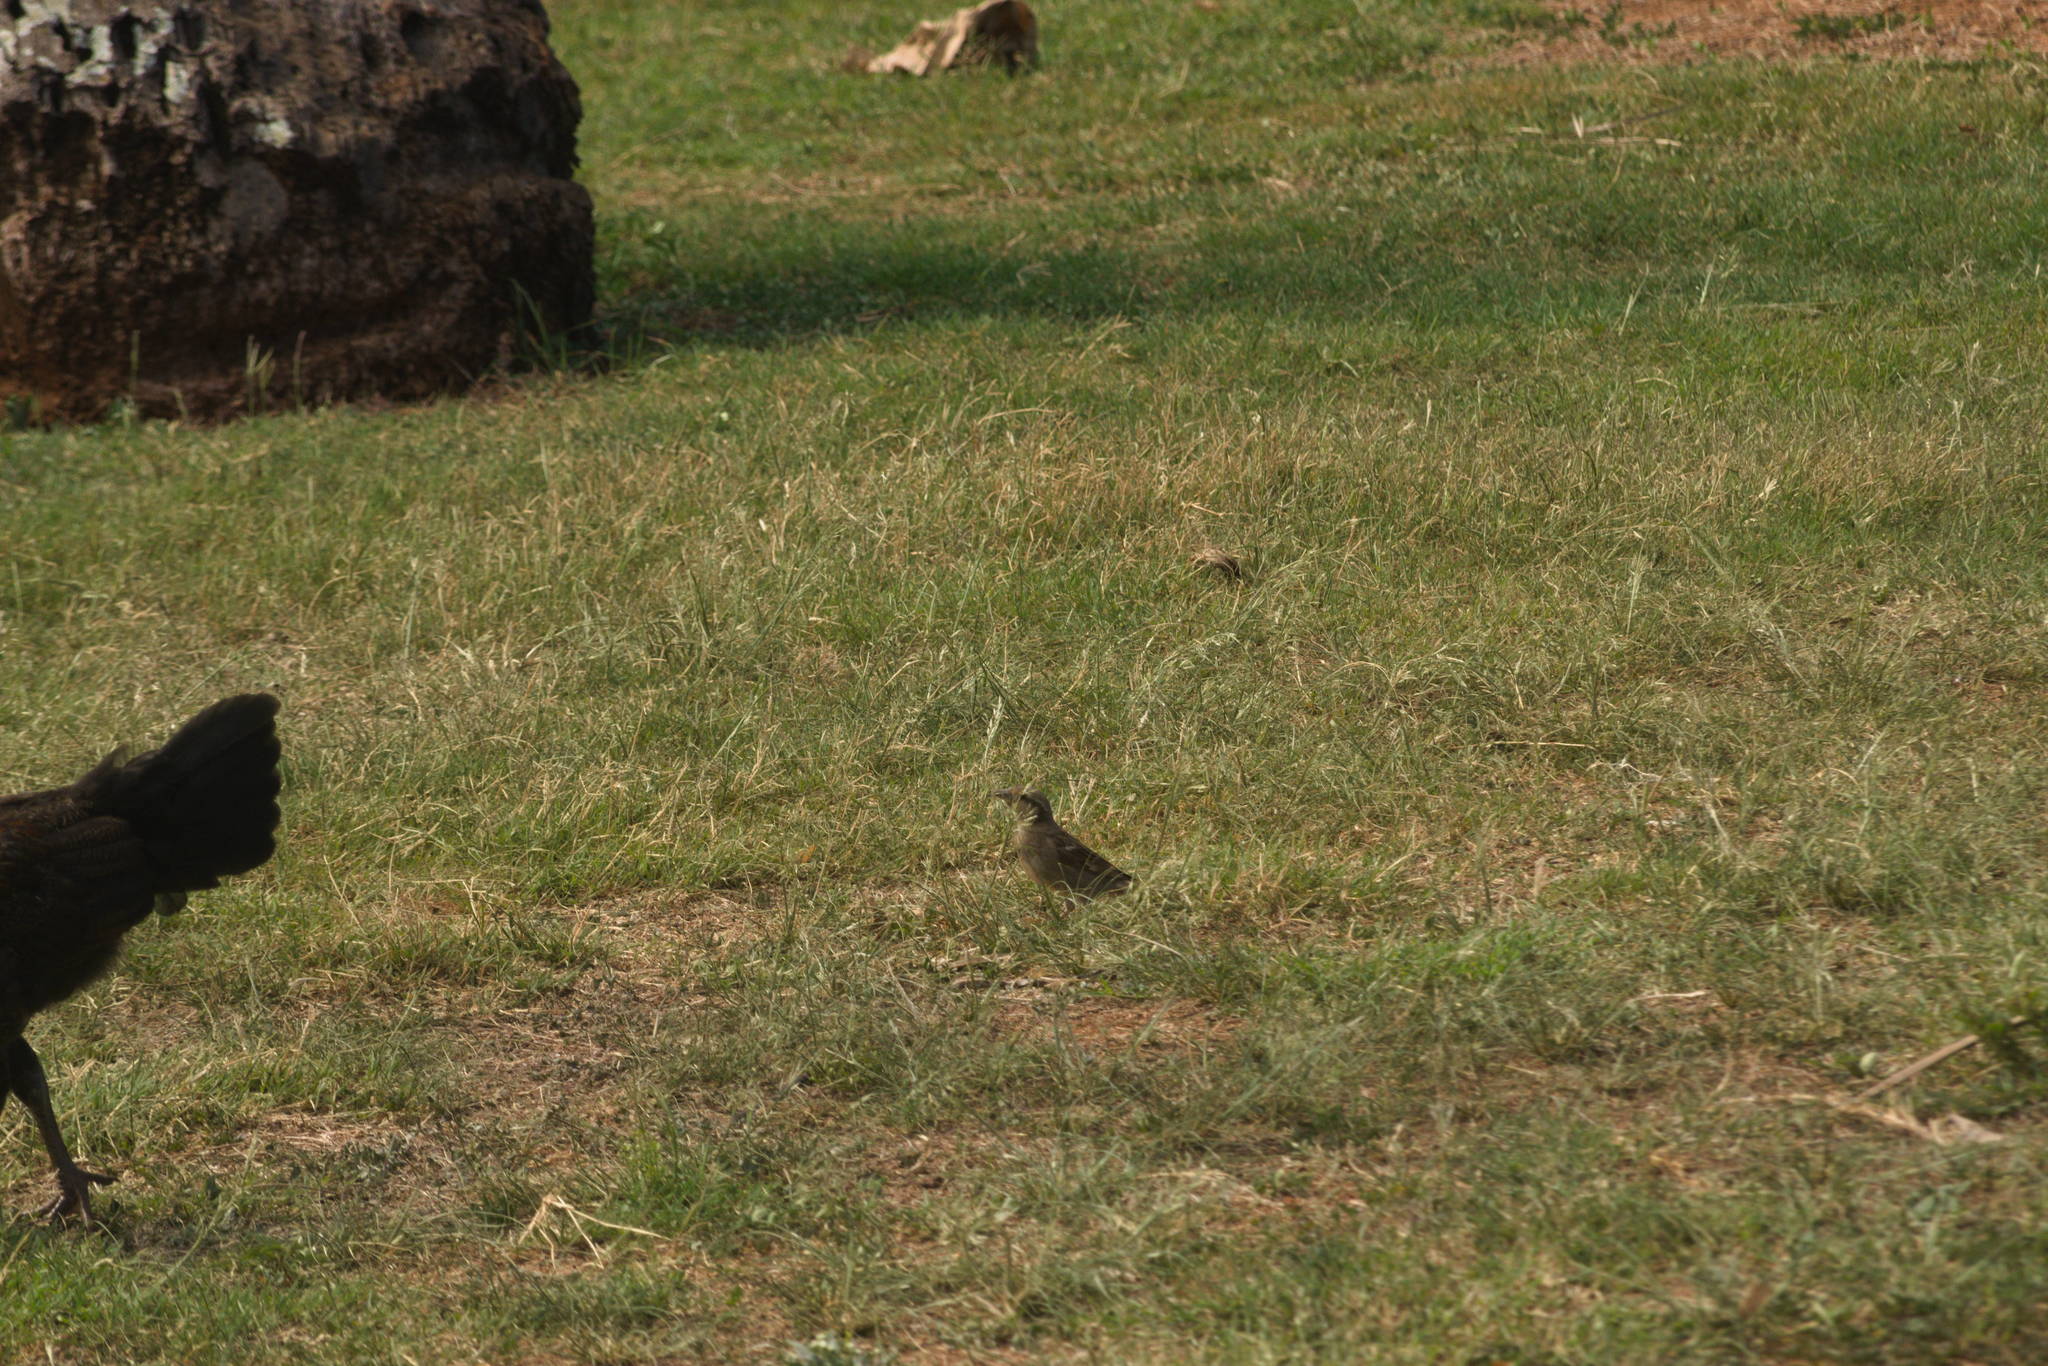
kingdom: Animalia
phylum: Chordata
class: Aves
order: Passeriformes
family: Passeridae
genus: Passer
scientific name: Passer domesticus
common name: House sparrow
